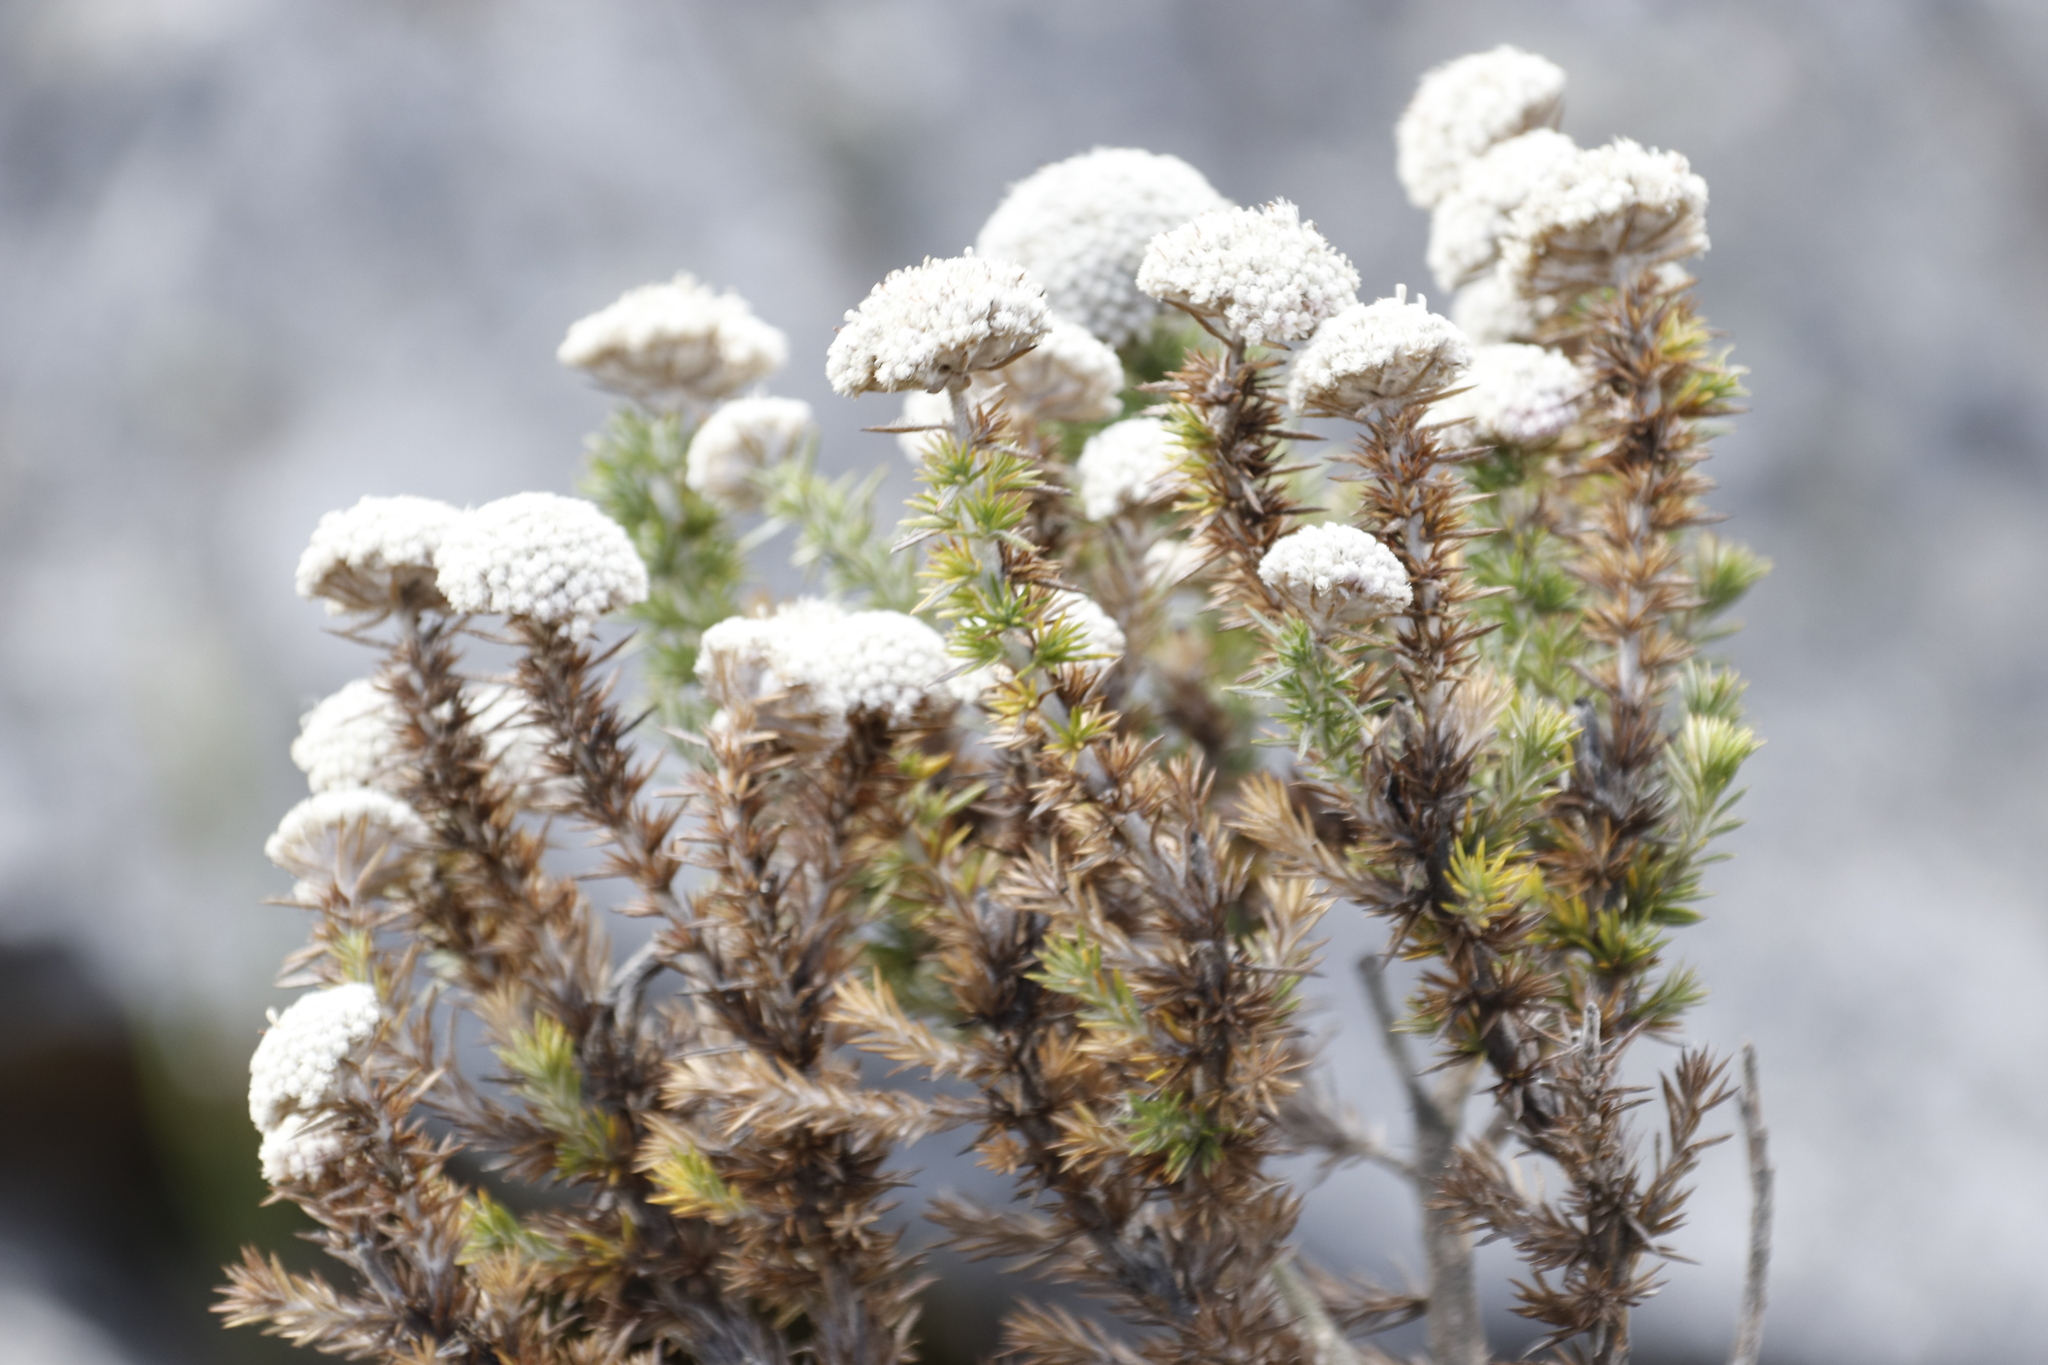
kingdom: Plantae
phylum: Tracheophyta
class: Magnoliopsida
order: Asterales
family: Asteraceae
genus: Stoebe
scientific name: Stoebe aethiopica
